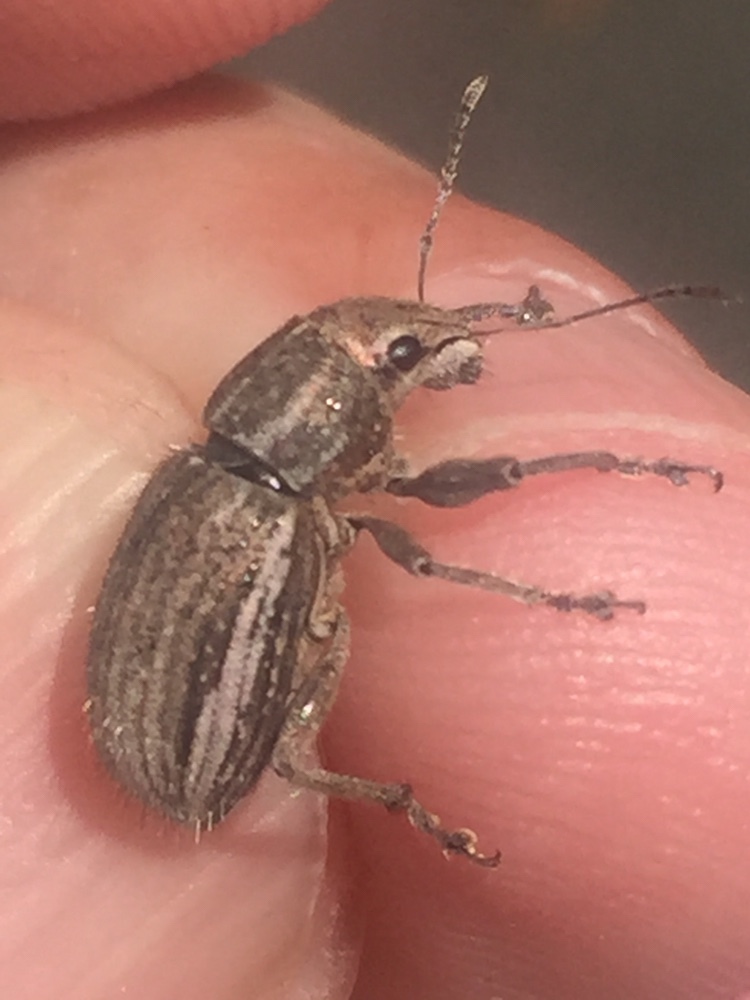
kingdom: Animalia
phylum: Arthropoda
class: Insecta
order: Coleoptera
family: Curculionidae
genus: Naupactus
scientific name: Naupactus leucoloma
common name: Whitefringed beetle
